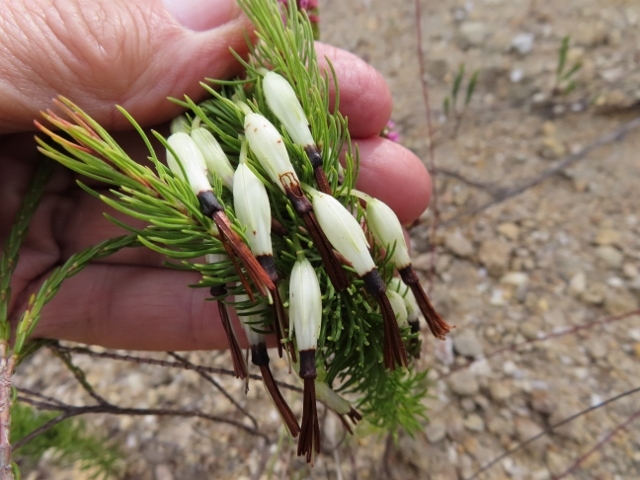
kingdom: Plantae
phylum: Tracheophyta
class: Magnoliopsida
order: Ericales
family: Ericaceae
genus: Erica
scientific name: Erica plukenetii
